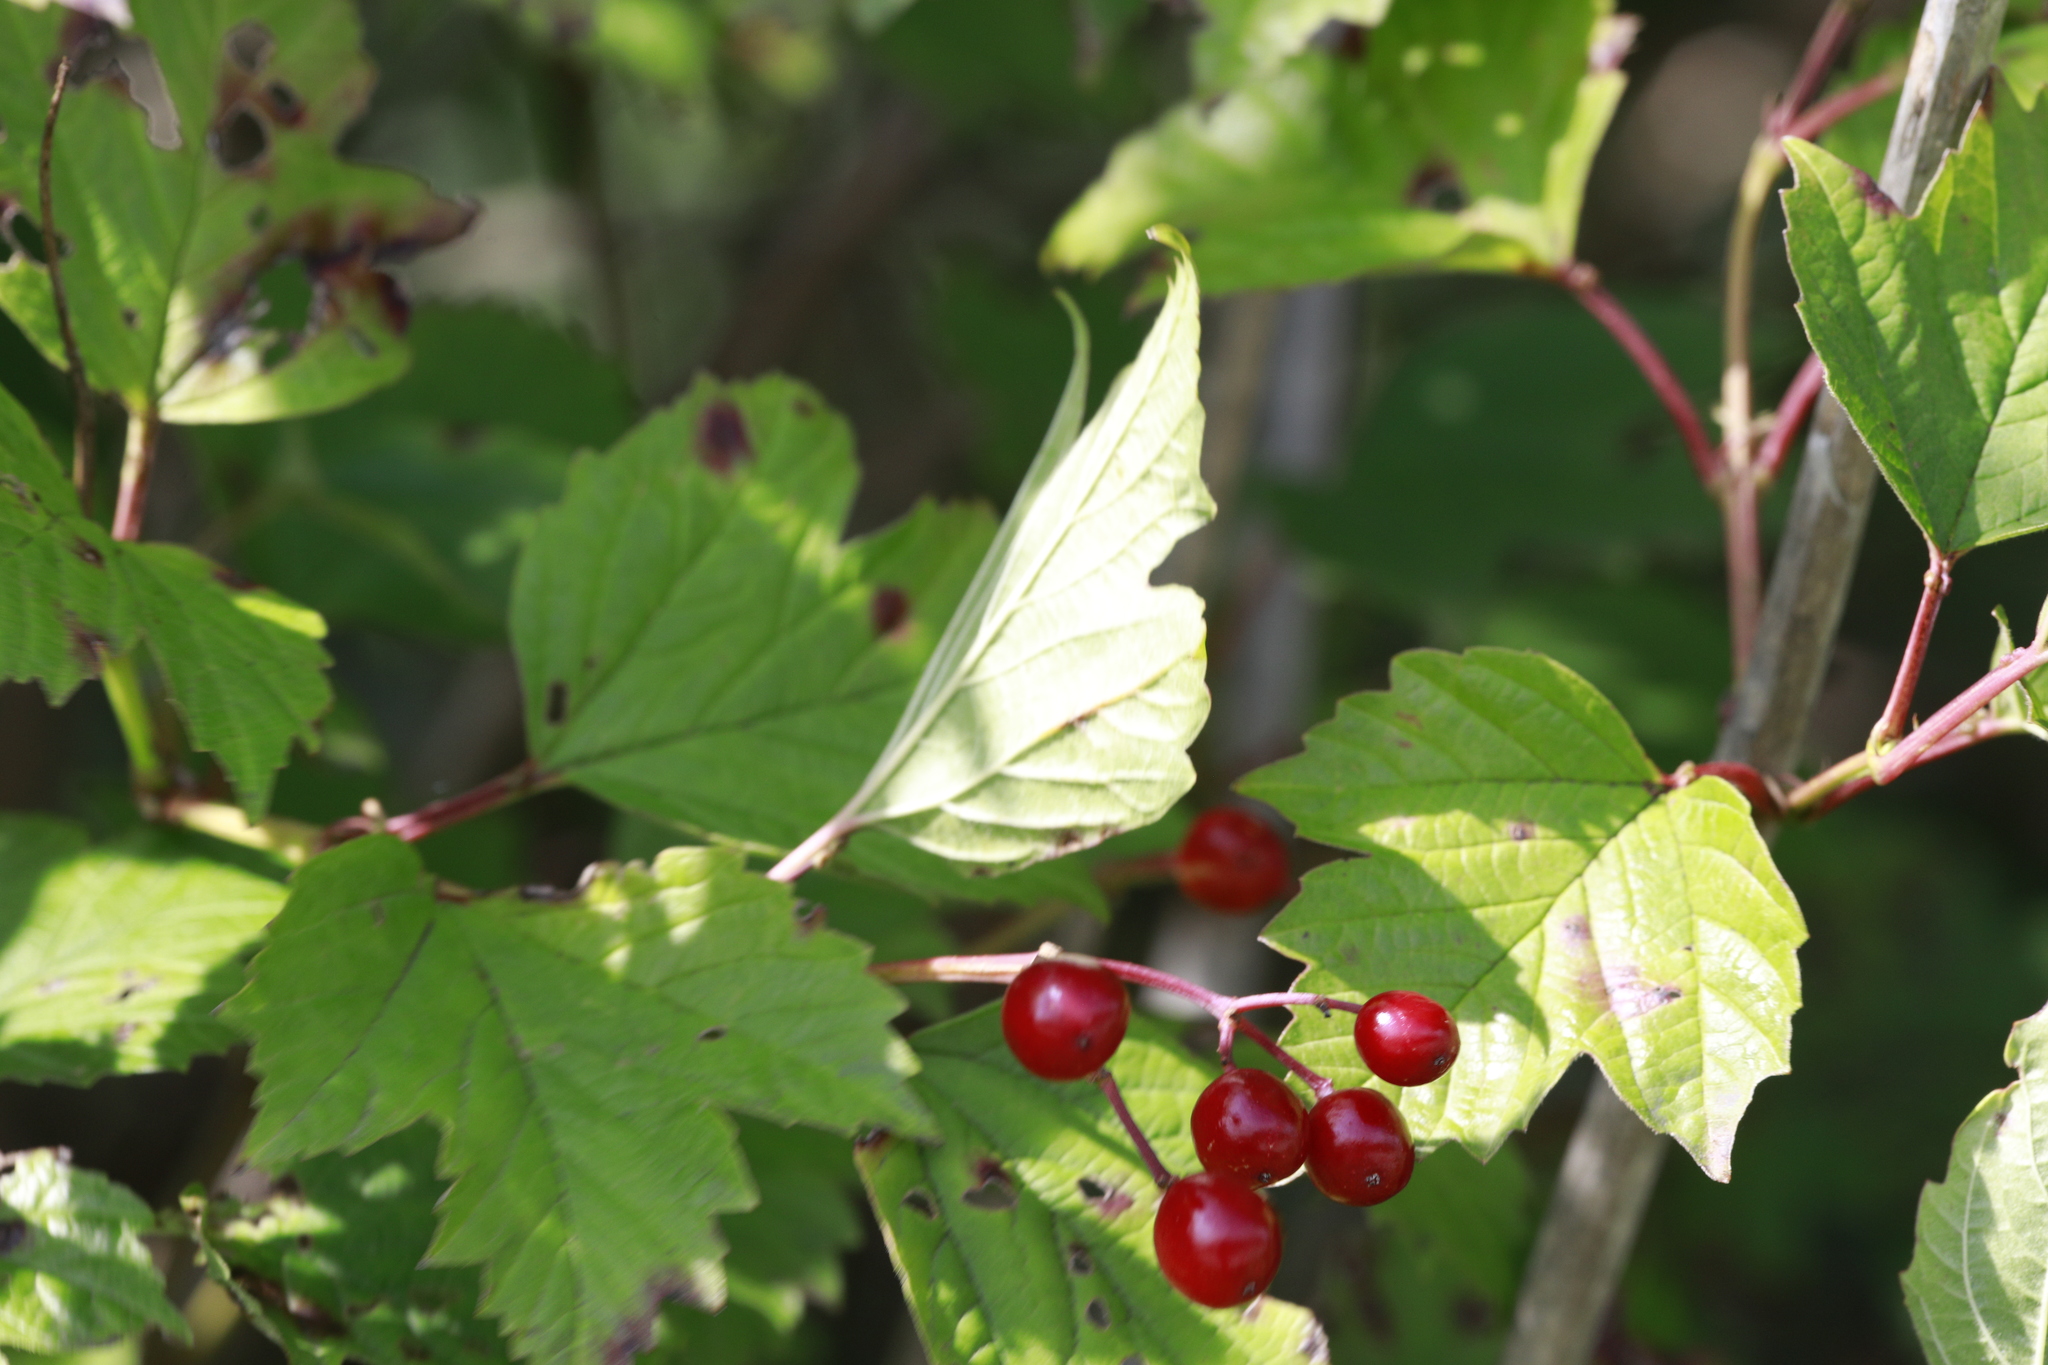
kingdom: Plantae
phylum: Tracheophyta
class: Magnoliopsida
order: Dipsacales
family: Viburnaceae
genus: Viburnum
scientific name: Viburnum opulus
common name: Guelder-rose
